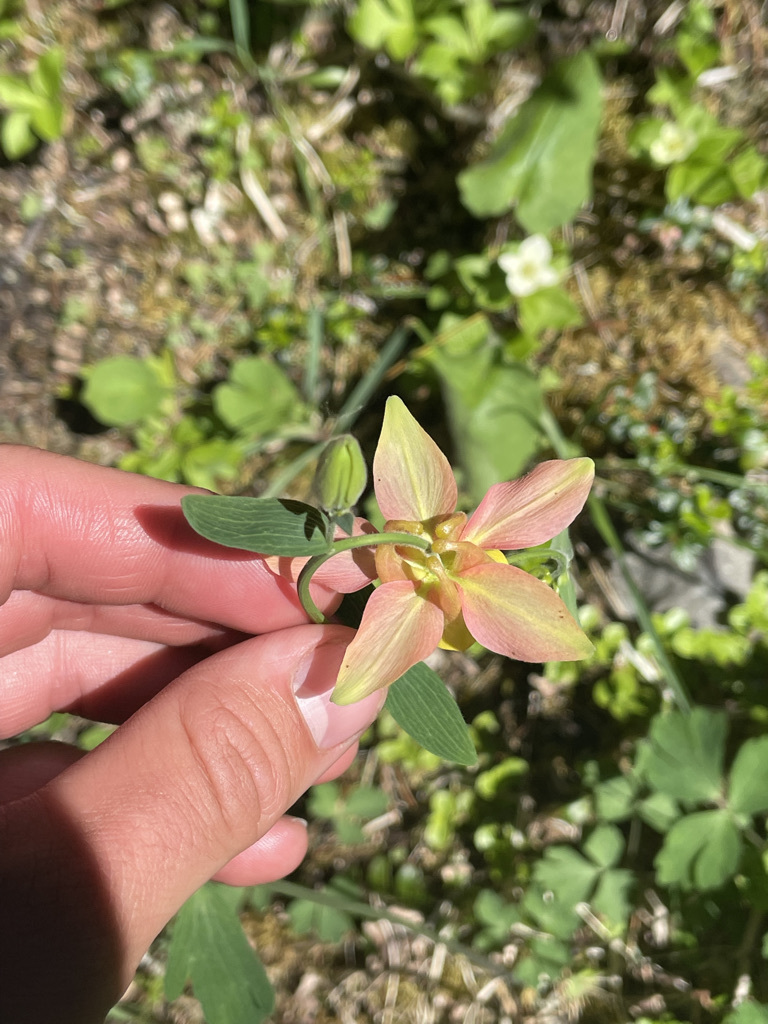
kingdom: Plantae
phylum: Tracheophyta
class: Magnoliopsida
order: Ranunculales
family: Ranunculaceae
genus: Aquilegia
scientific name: Aquilegia flavescens
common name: Yellow columbine
